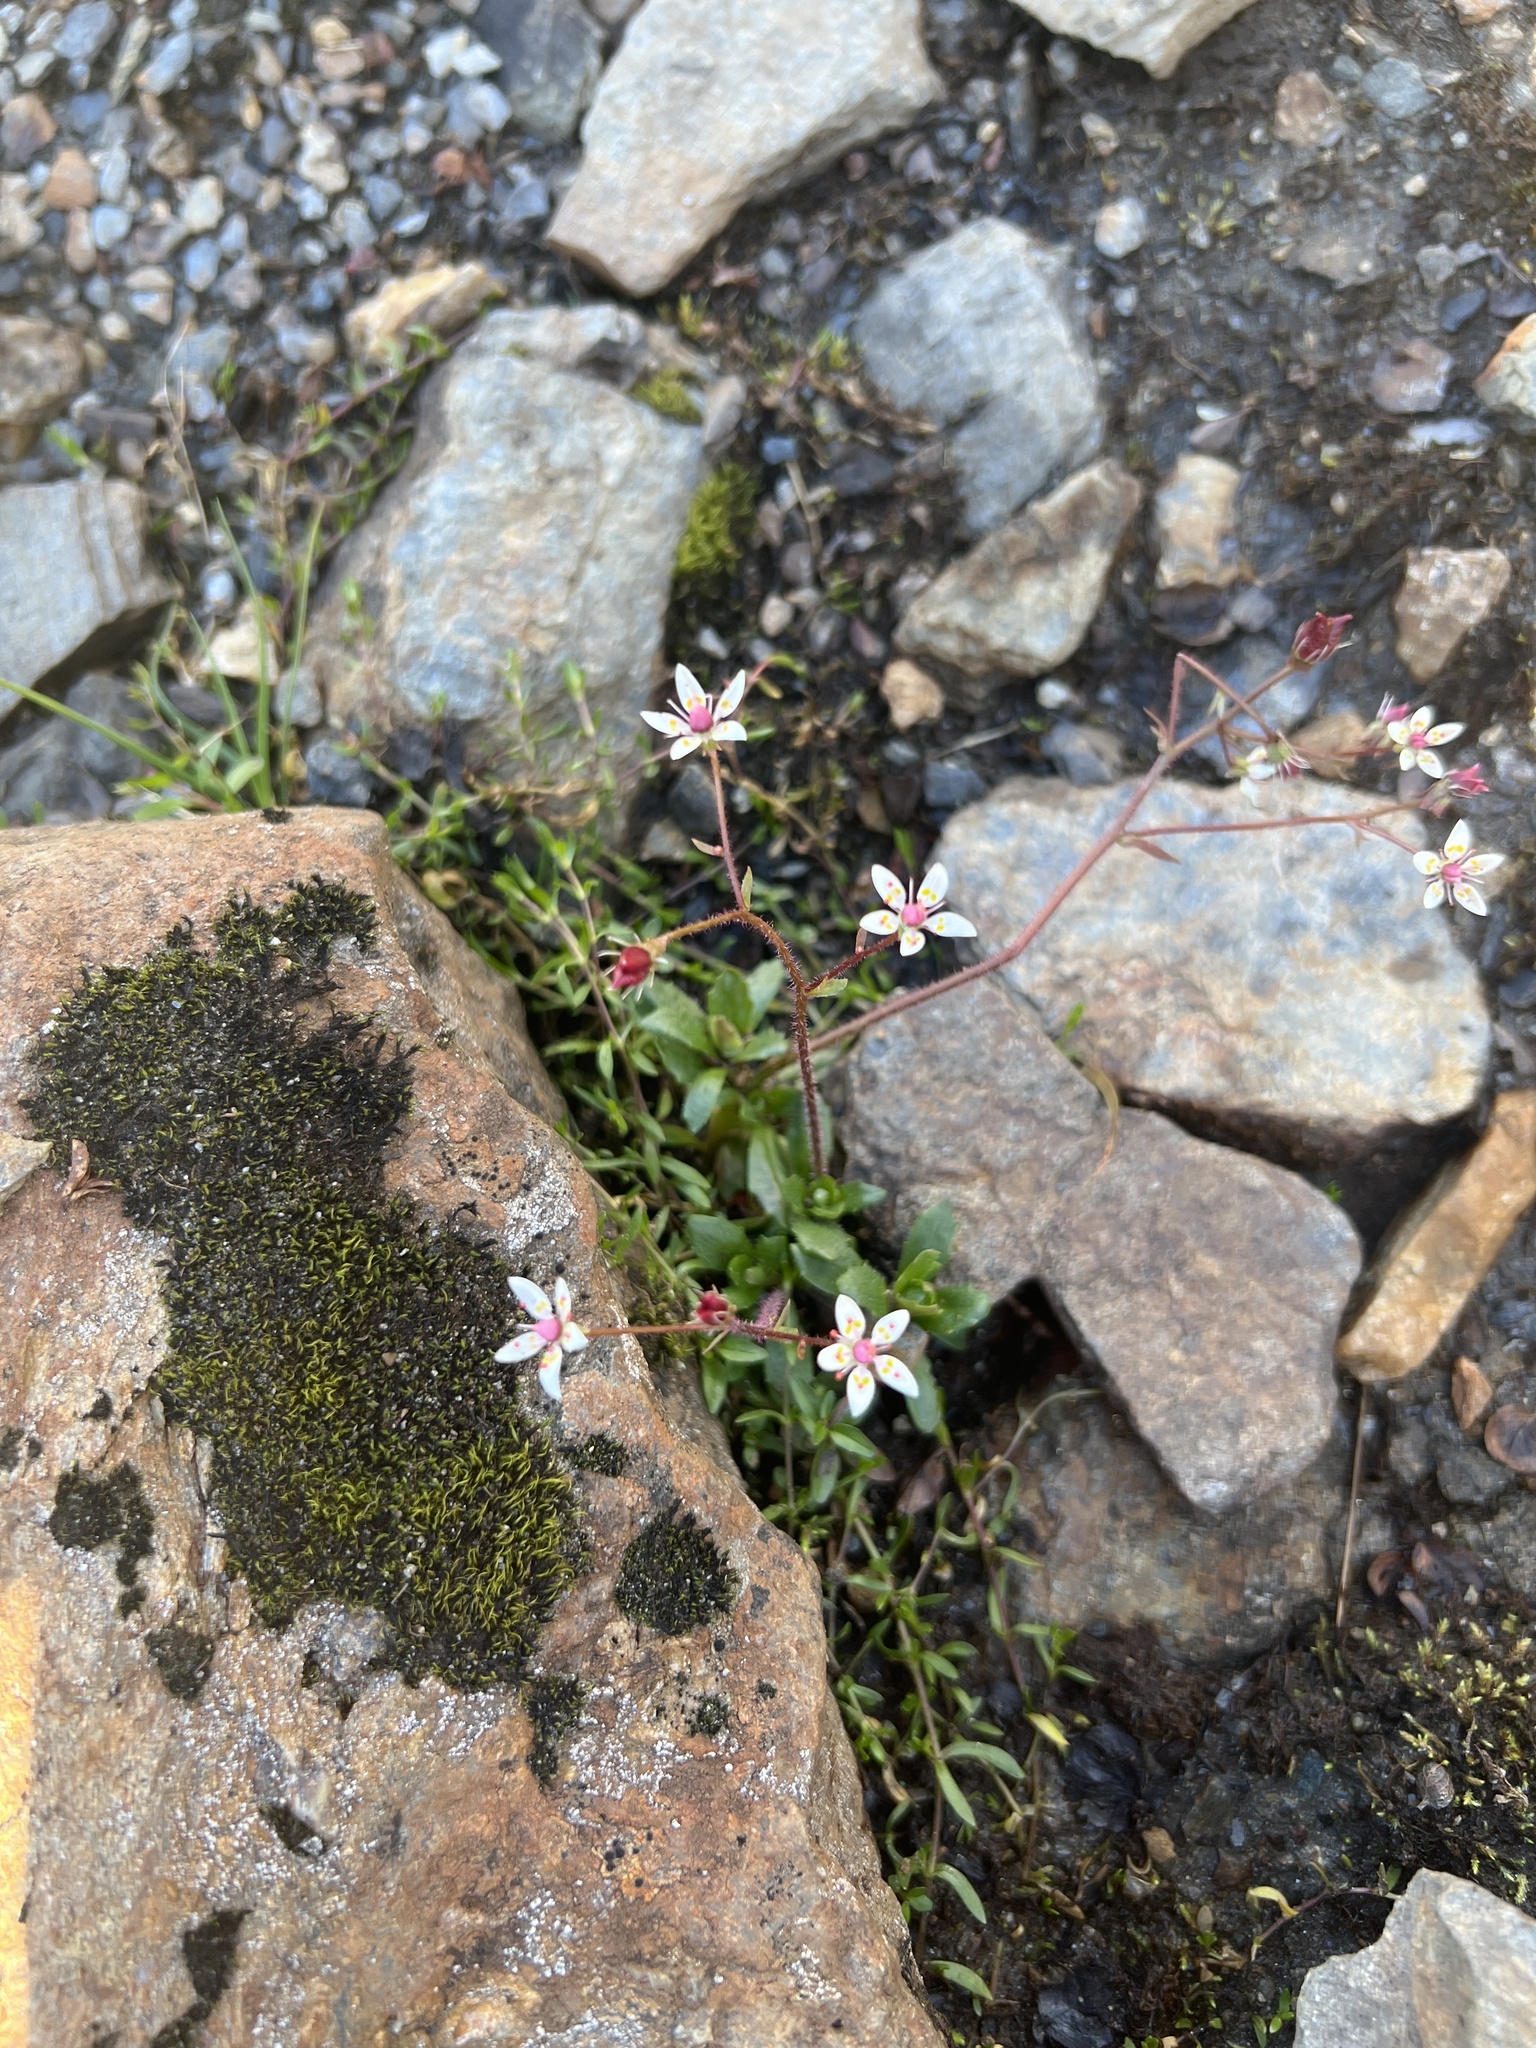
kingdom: Plantae
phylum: Tracheophyta
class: Magnoliopsida
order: Saxifragales
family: Saxifragaceae
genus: Micranthes
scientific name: Micranthes stellaris
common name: Starry saxifrage
